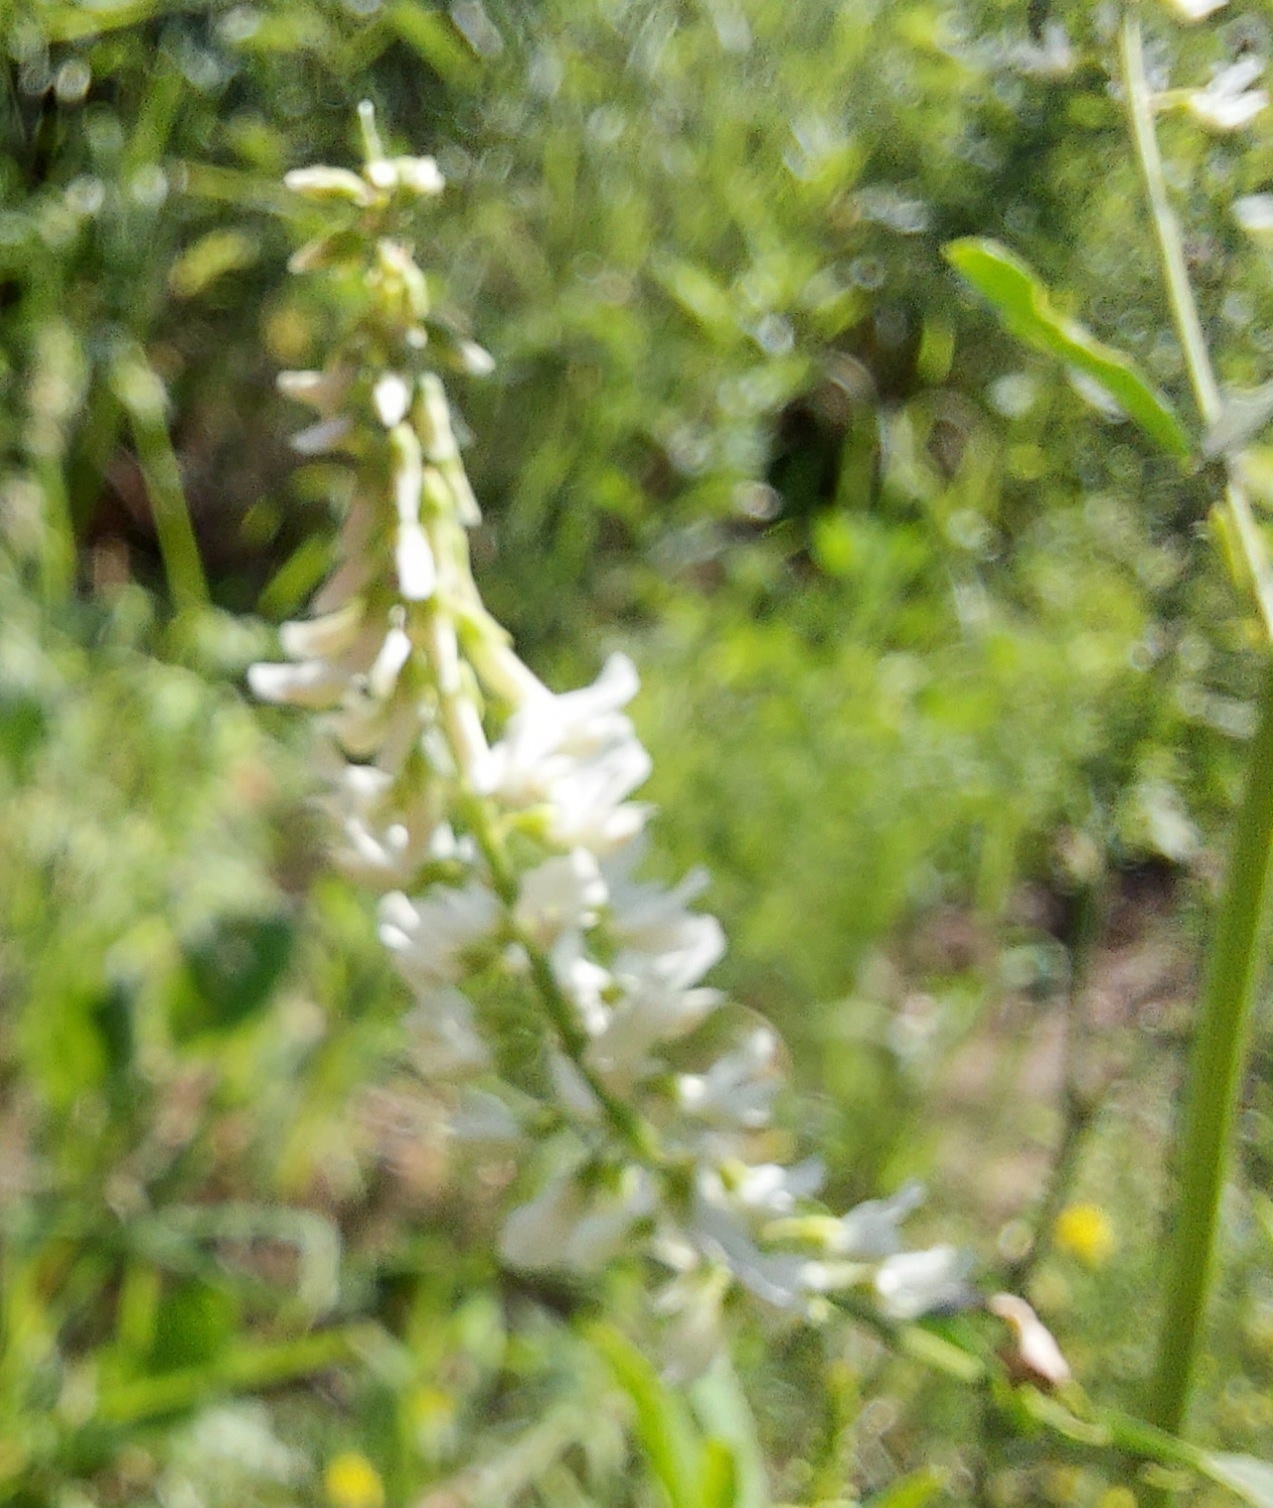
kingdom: Plantae
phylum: Tracheophyta
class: Magnoliopsida
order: Fabales
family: Fabaceae
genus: Melilotus
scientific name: Melilotus albus
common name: White melilot
